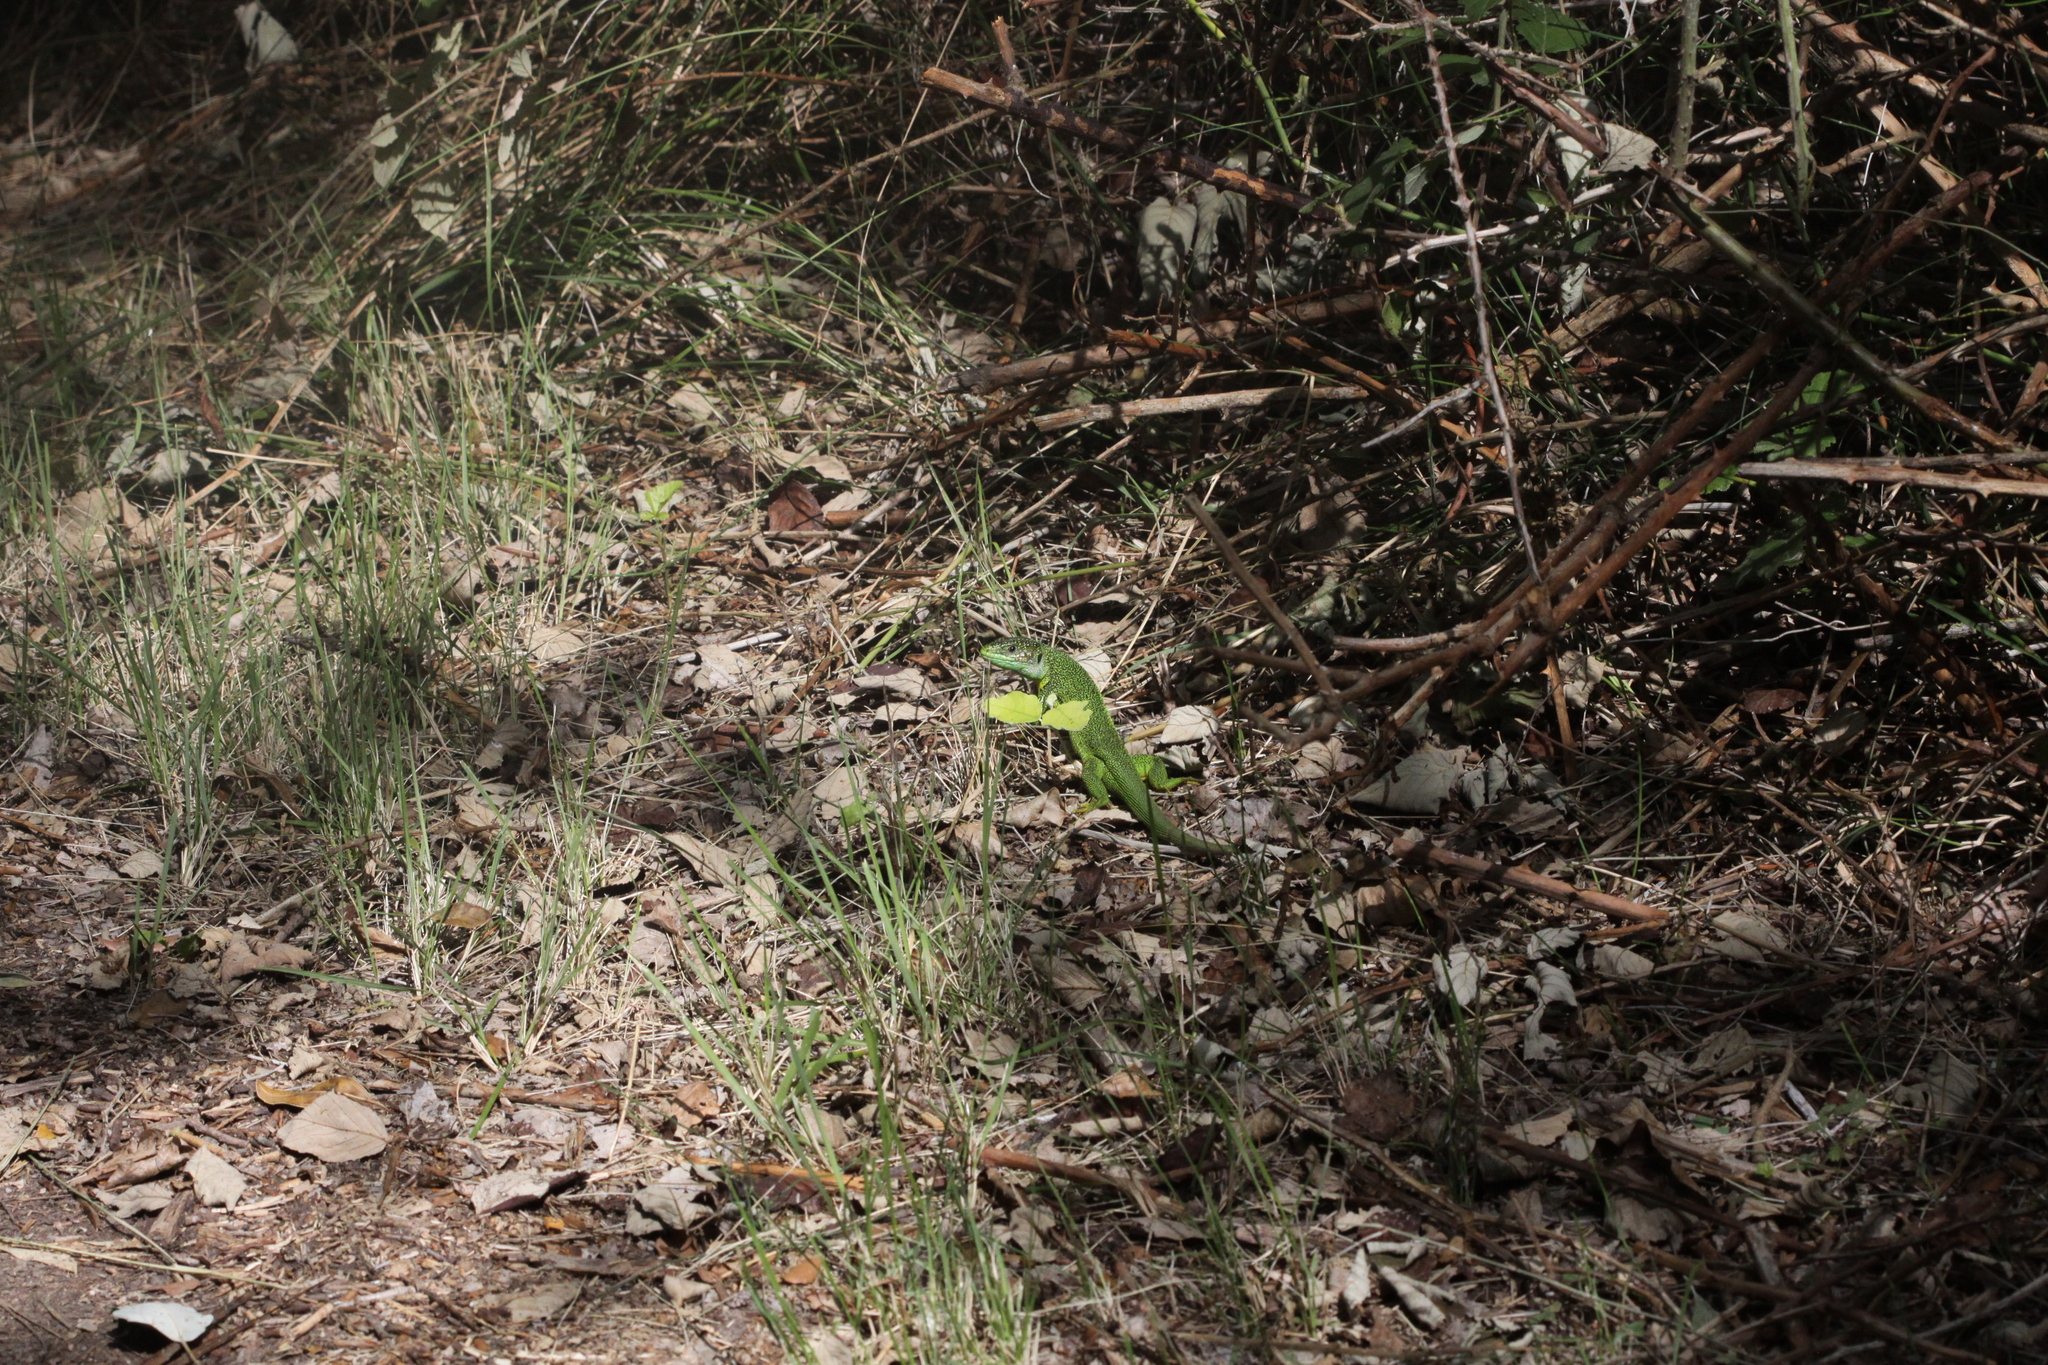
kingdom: Animalia
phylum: Chordata
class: Squamata
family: Lacertidae
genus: Lacerta
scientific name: Lacerta bilineata
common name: Western green lizard
